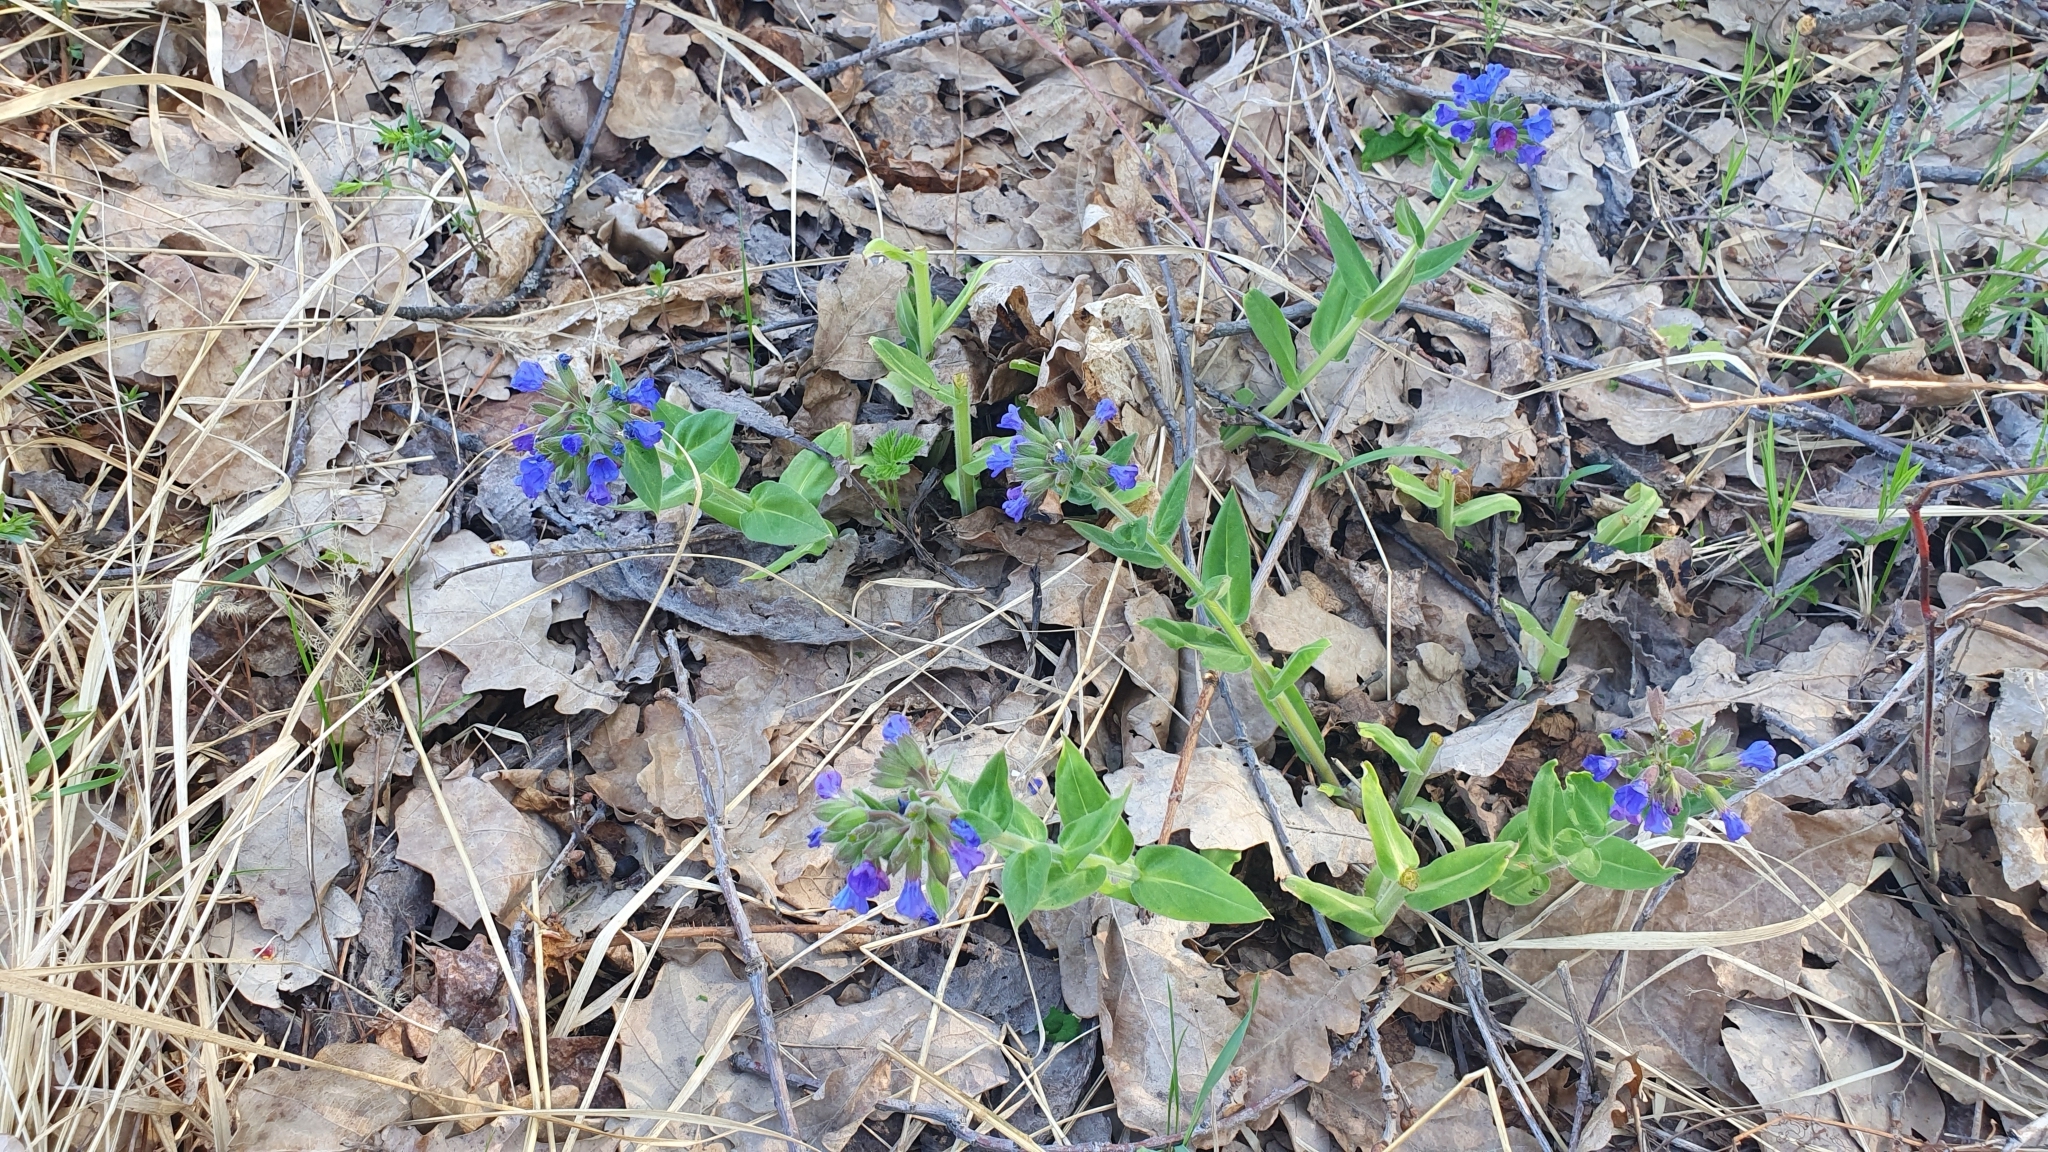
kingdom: Plantae
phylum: Tracheophyta
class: Magnoliopsida
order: Boraginales
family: Boraginaceae
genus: Pulmonaria
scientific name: Pulmonaria mollis
